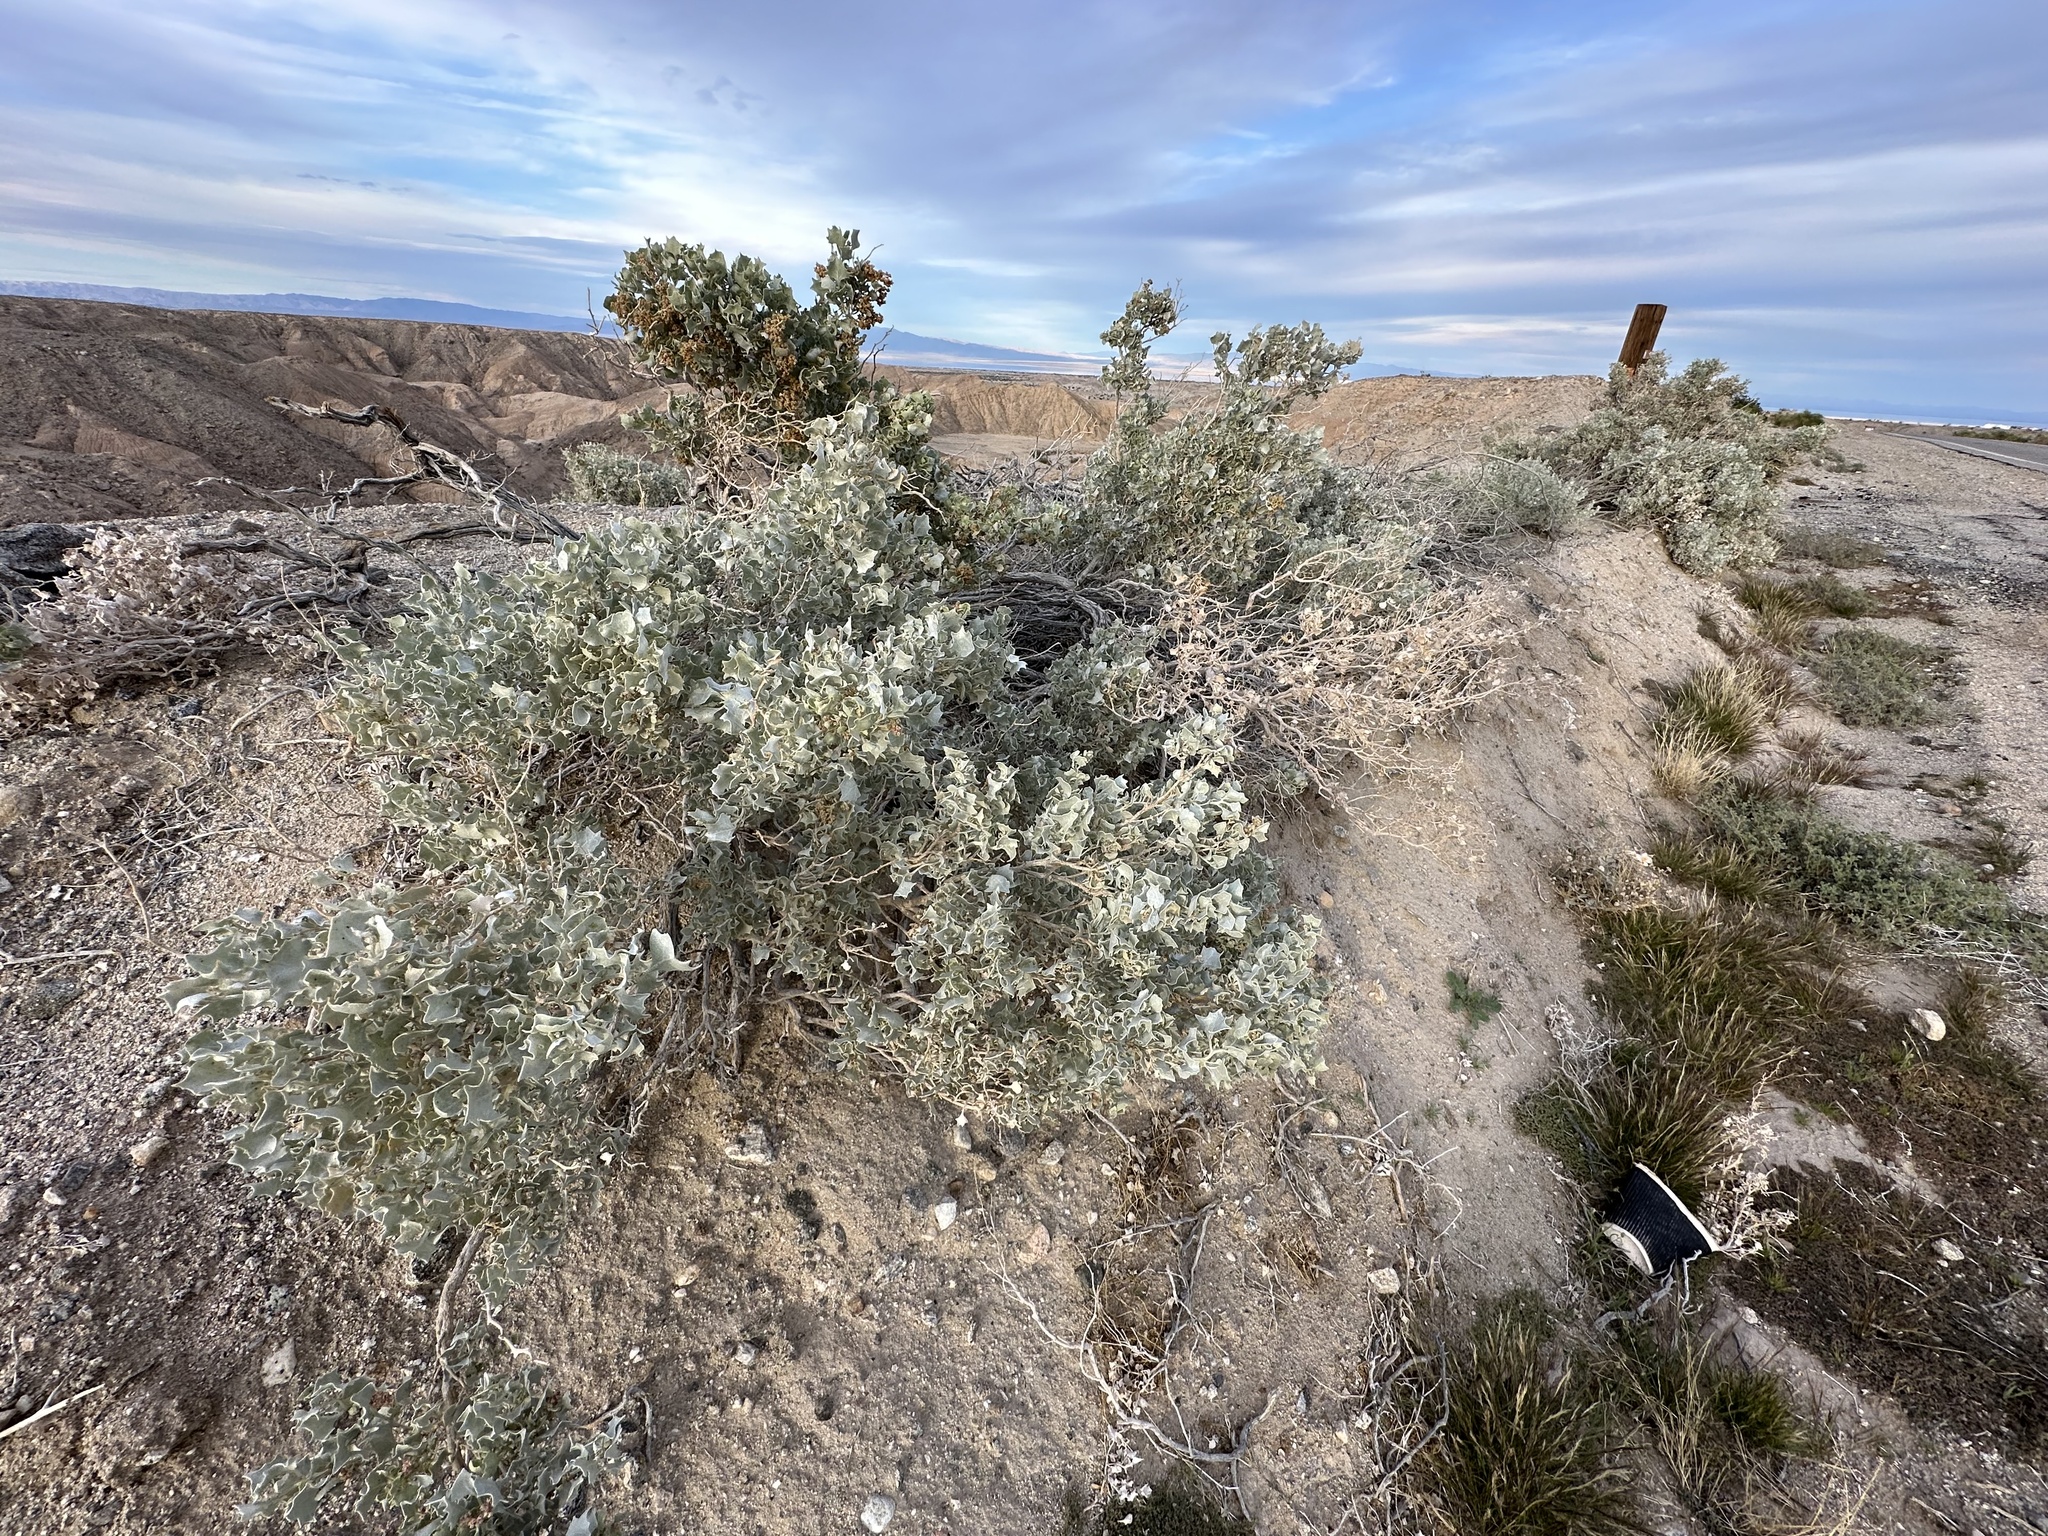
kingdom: Plantae
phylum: Tracheophyta
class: Magnoliopsida
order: Caryophyllales
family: Amaranthaceae
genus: Atriplex
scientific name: Atriplex hymenelytra
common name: Desert-holly
